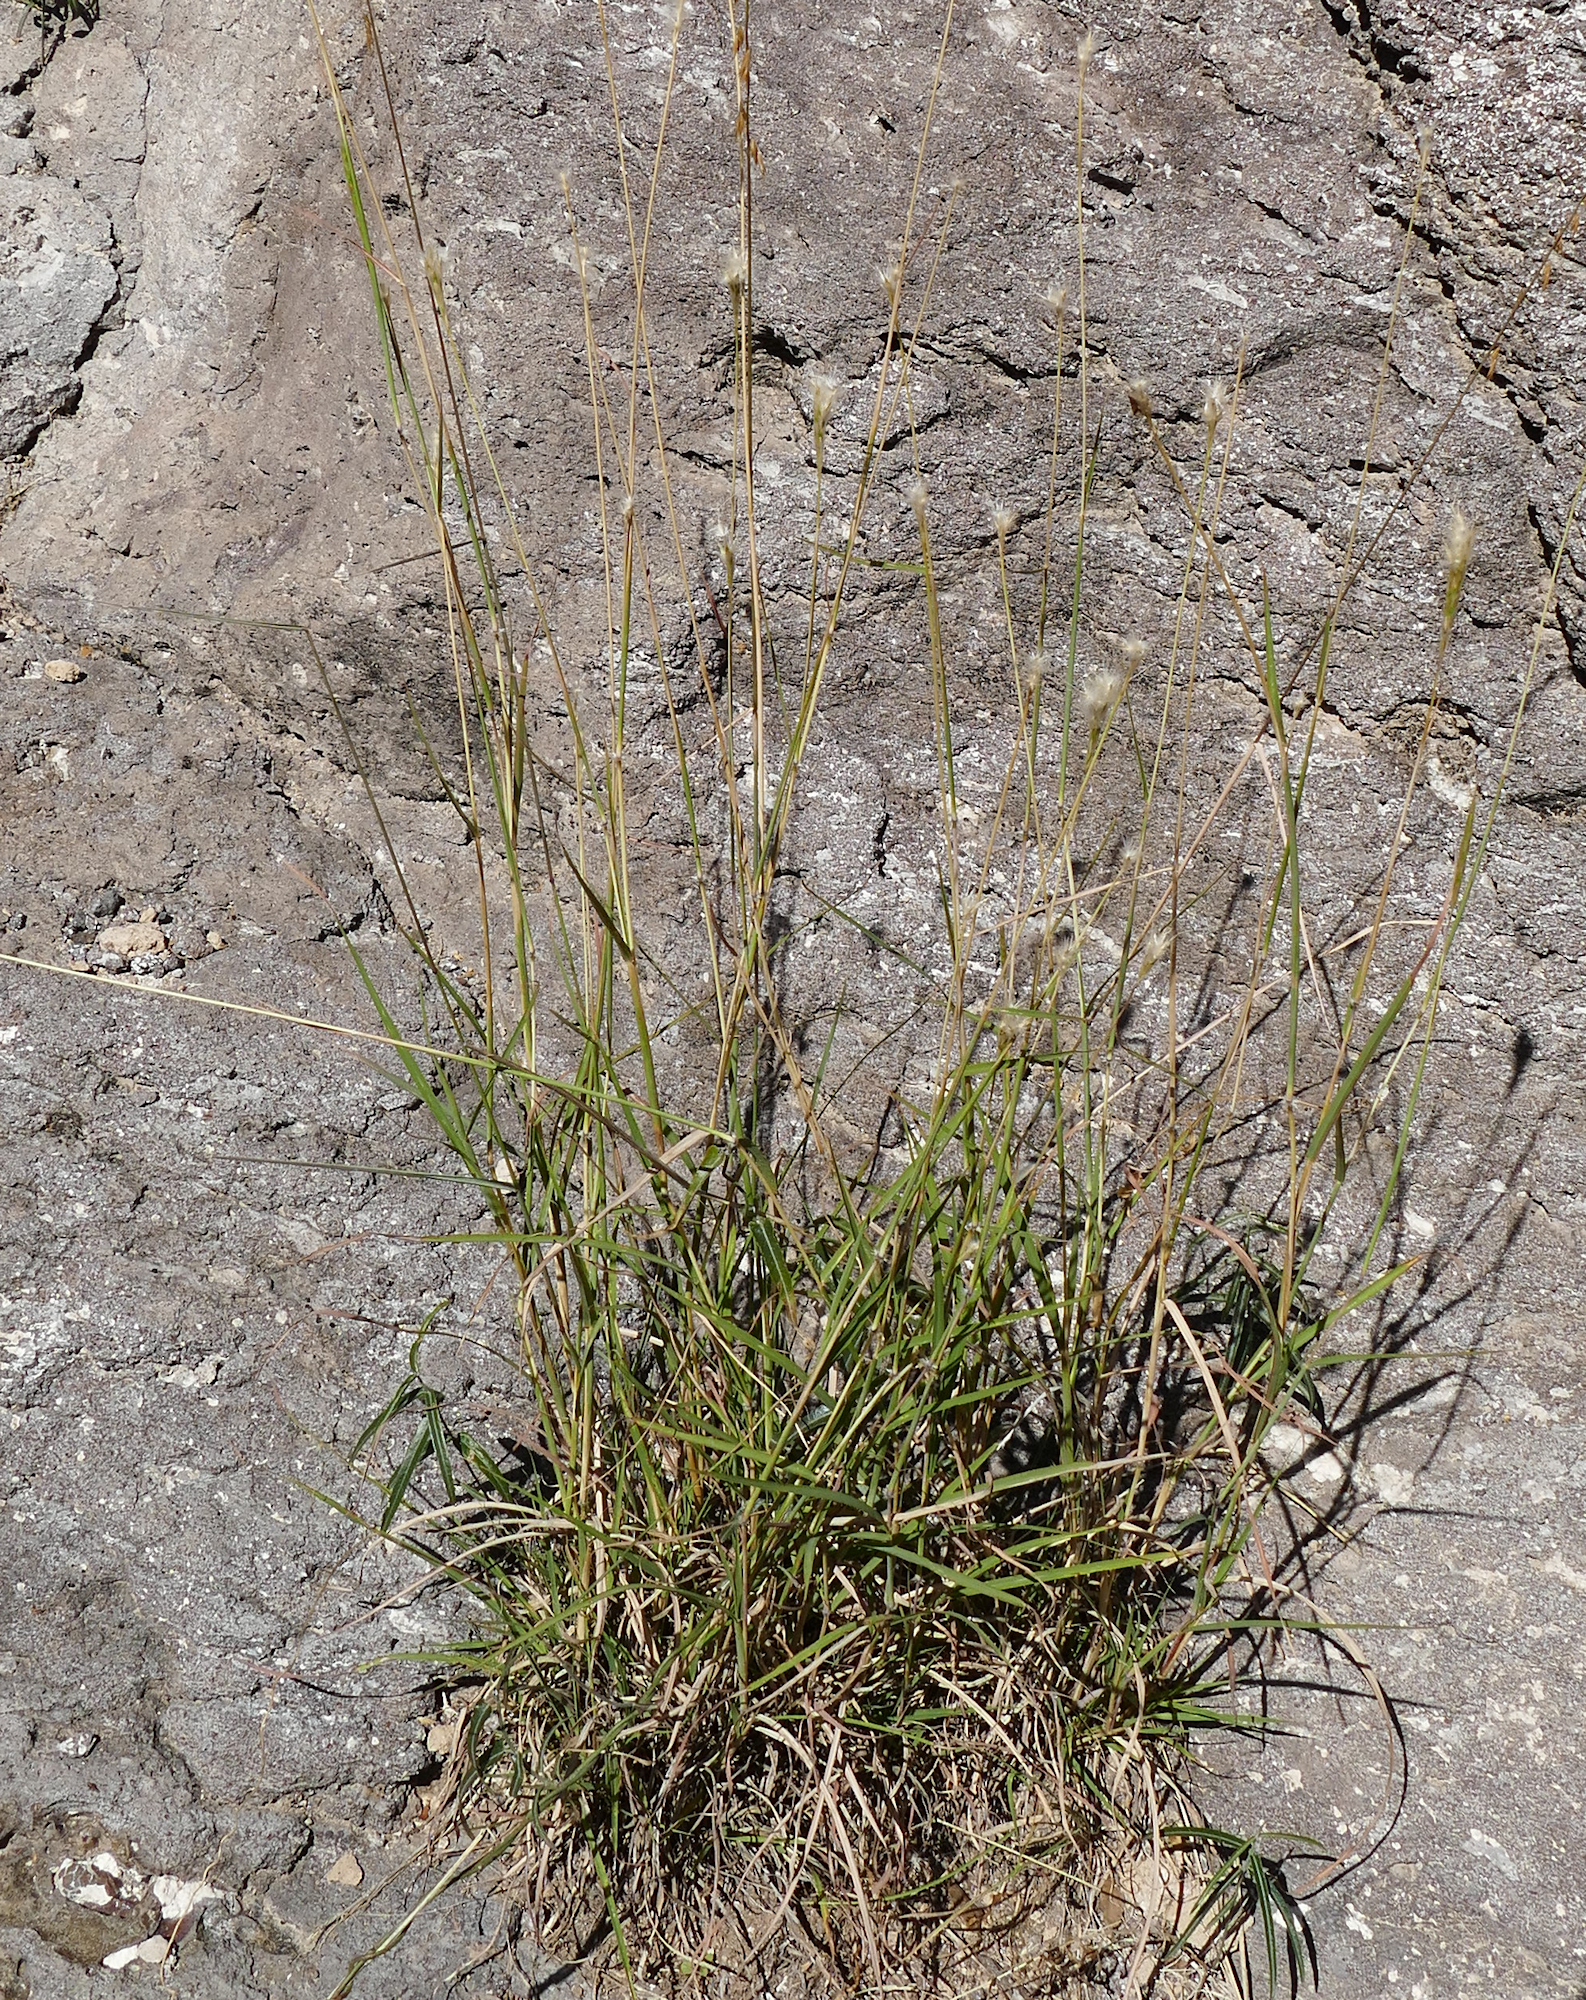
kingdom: Plantae
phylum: Tracheophyta
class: Liliopsida
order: Poales
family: Poaceae
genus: Bothriochloa
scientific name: Bothriochloa springfieldii
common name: Springfield bluestem
